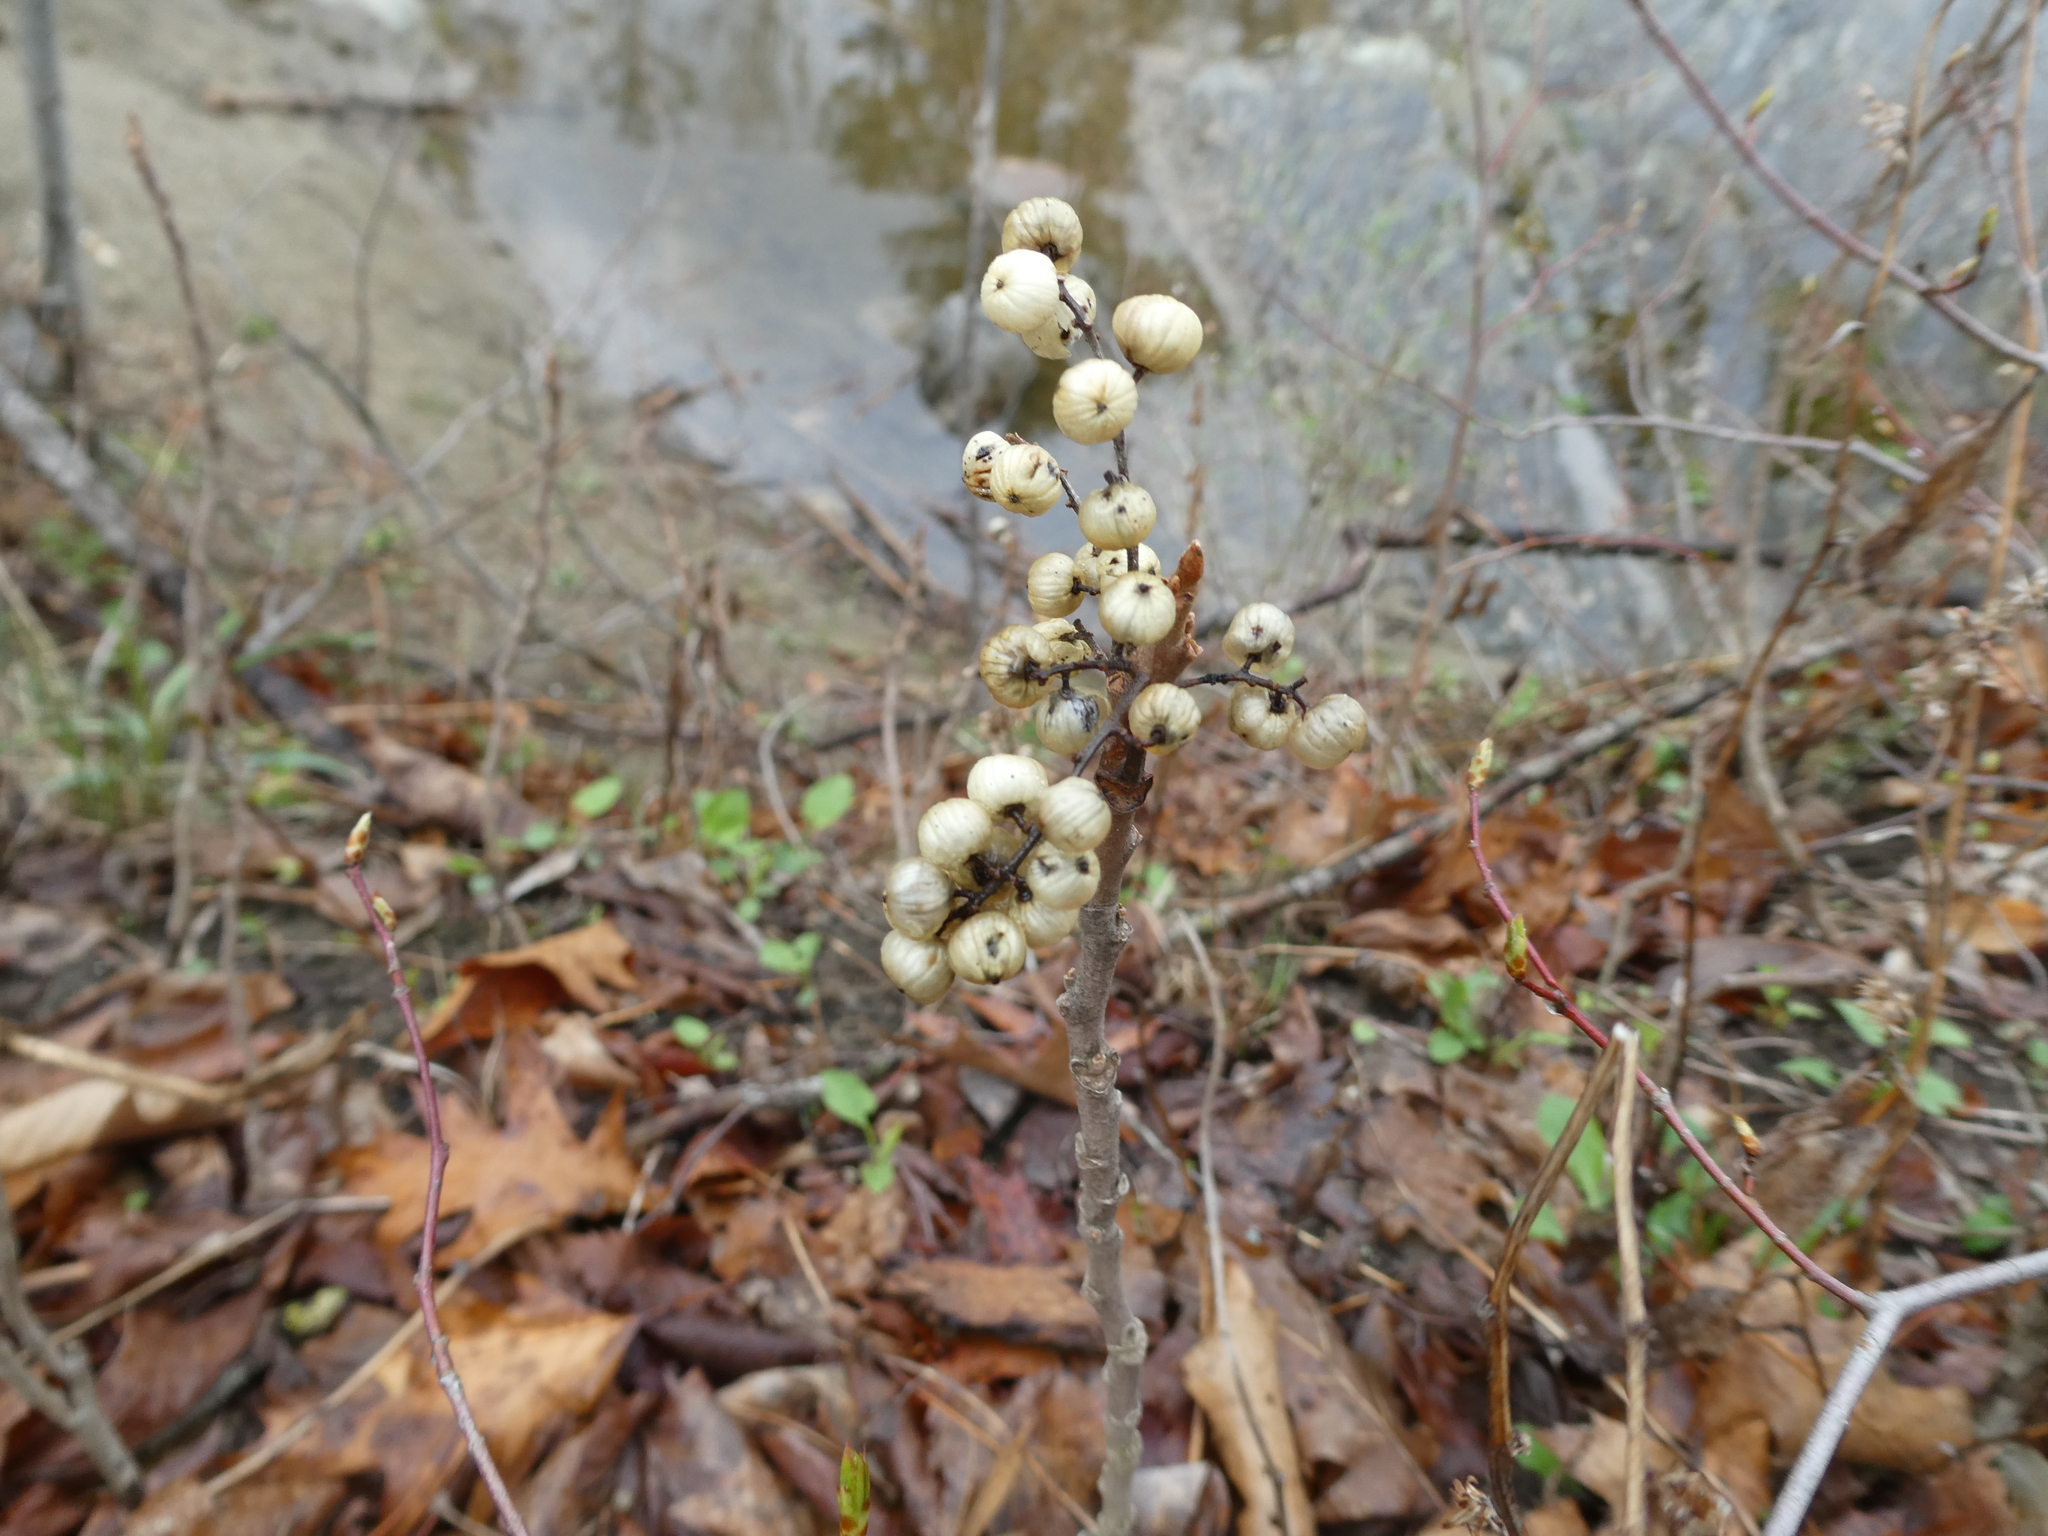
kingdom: Plantae
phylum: Tracheophyta
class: Magnoliopsida
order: Sapindales
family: Anacardiaceae
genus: Toxicodendron
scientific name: Toxicodendron rydbergii
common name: Rydberg's poison-ivy
